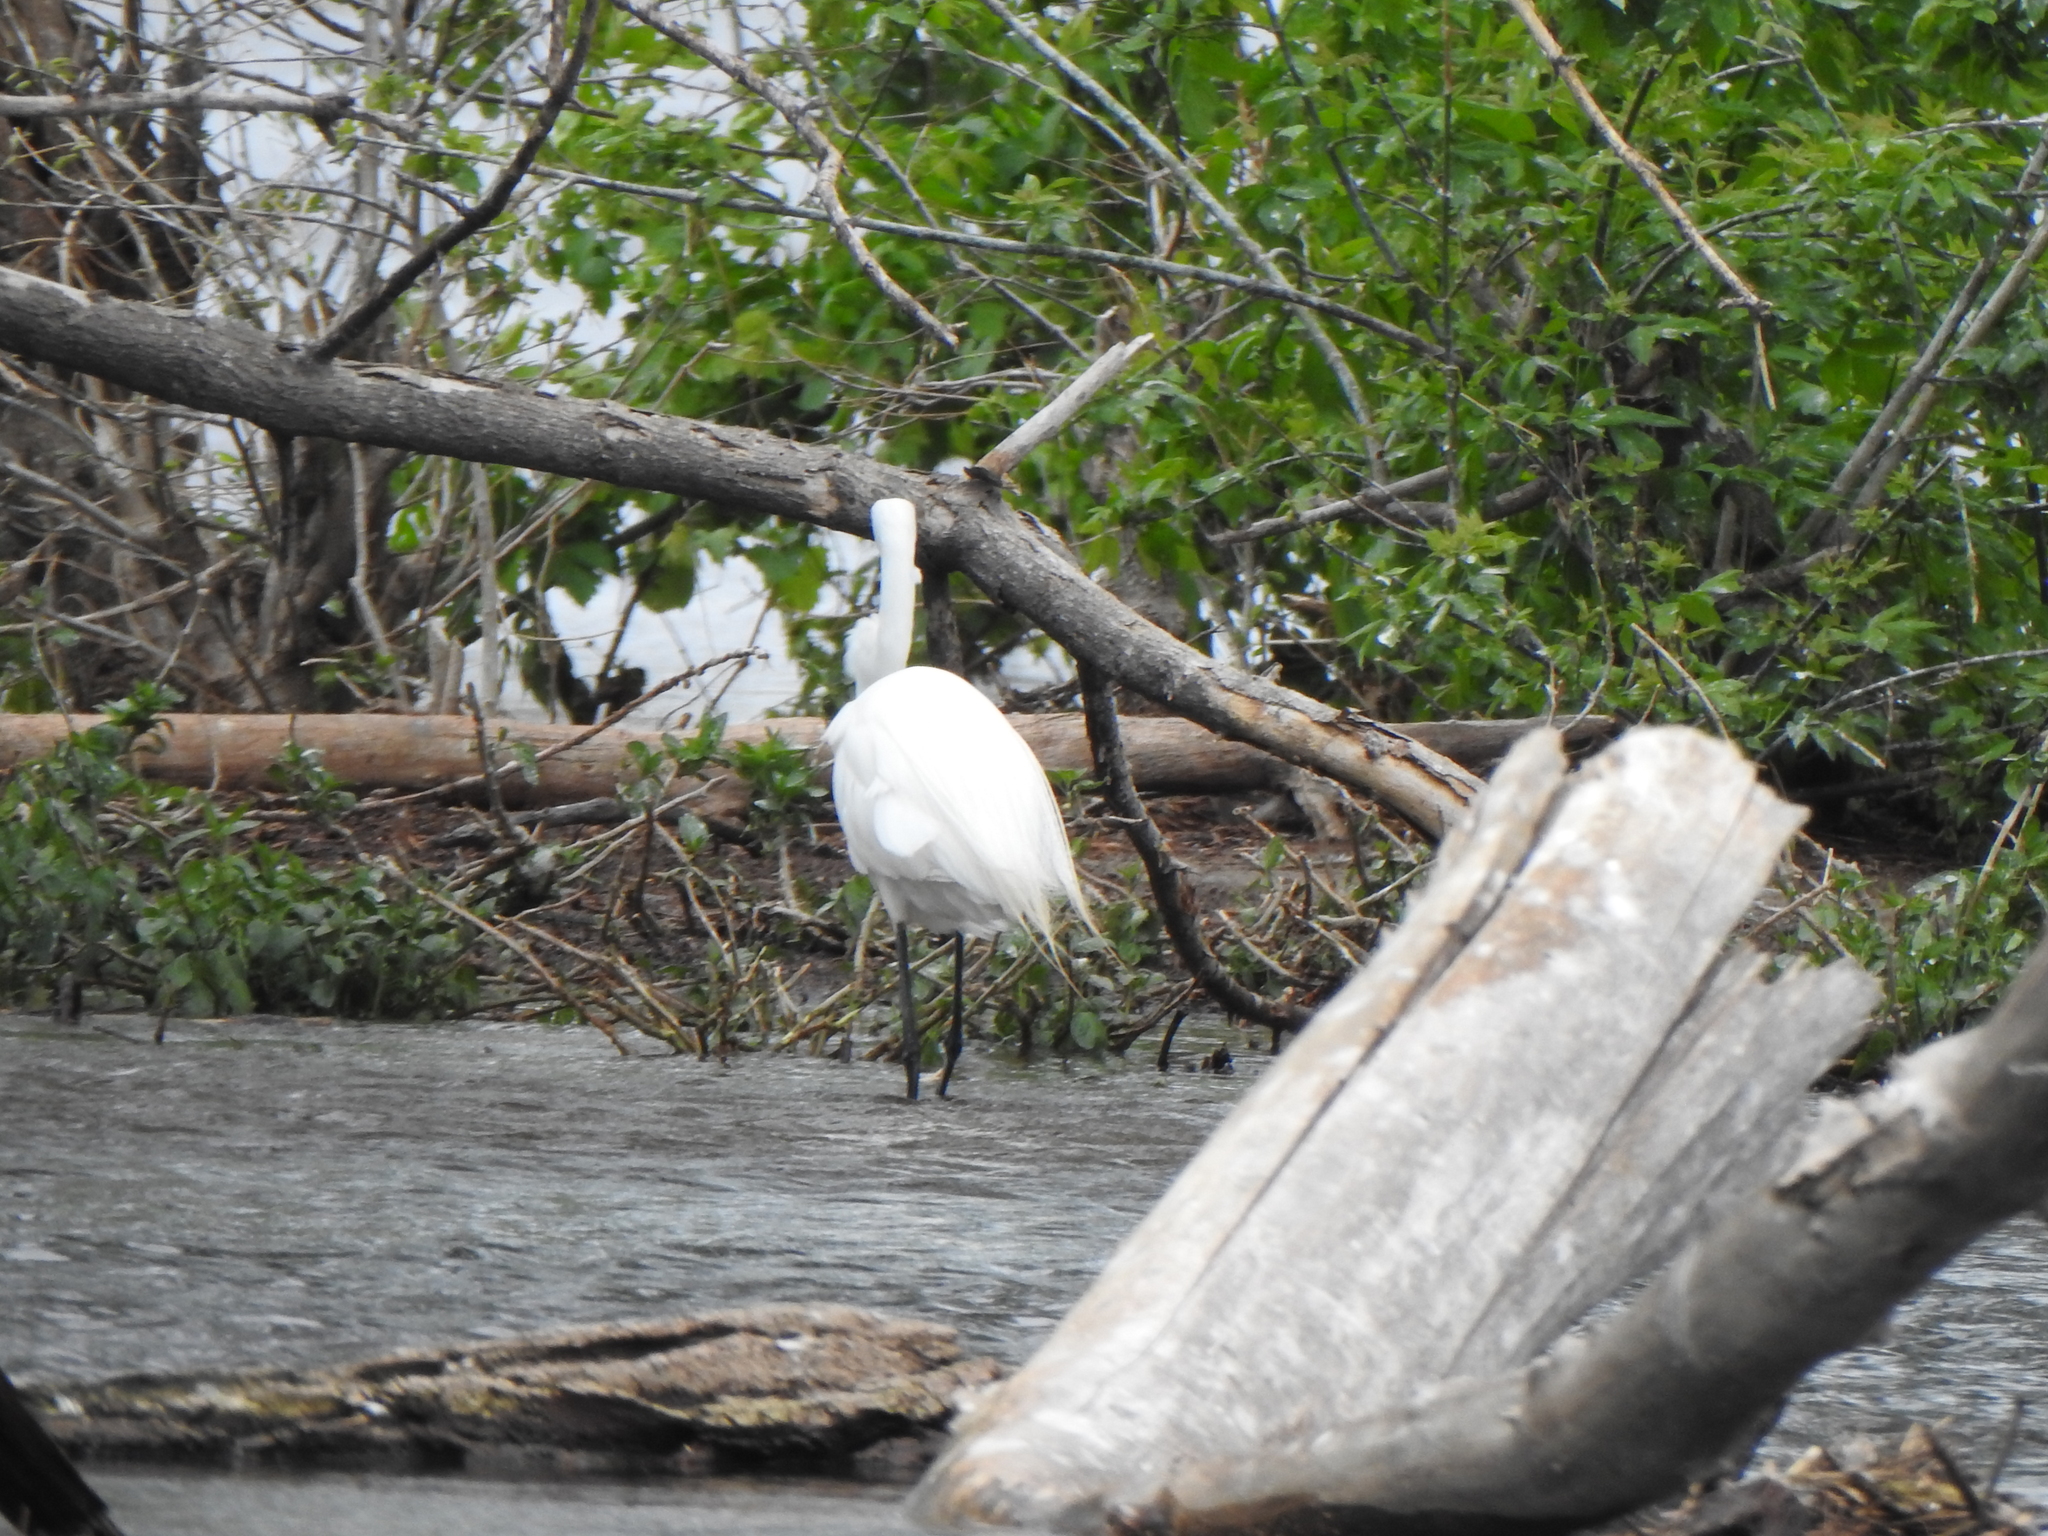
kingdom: Animalia
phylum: Chordata
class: Aves
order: Pelecaniformes
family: Ardeidae
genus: Ardea
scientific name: Ardea alba
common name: Great egret
